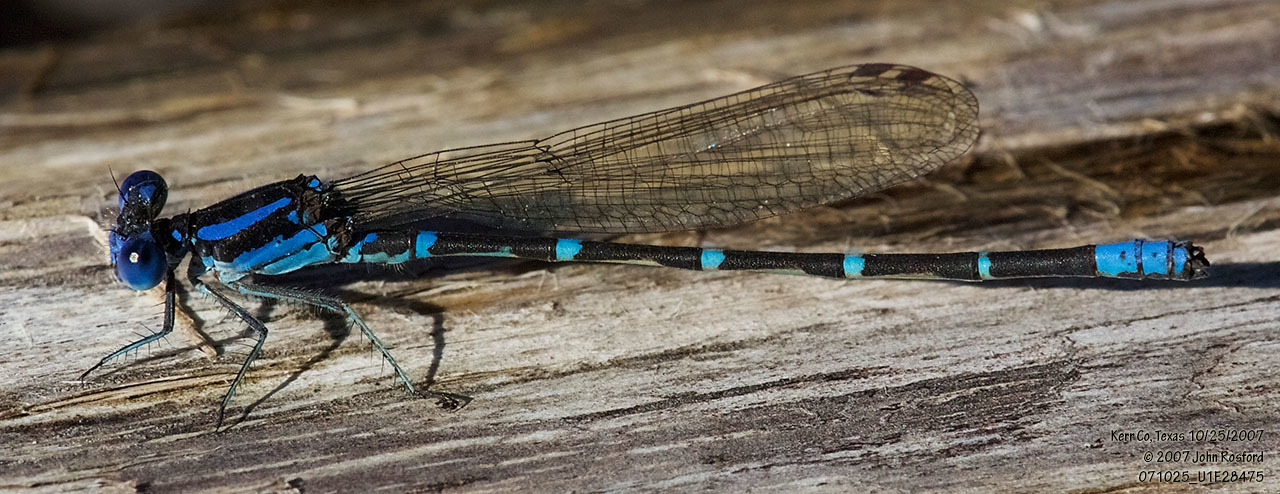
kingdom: Animalia
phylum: Arthropoda
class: Insecta
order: Odonata
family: Coenagrionidae
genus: Argia
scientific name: Argia sedula
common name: Blue-ringed dancer
